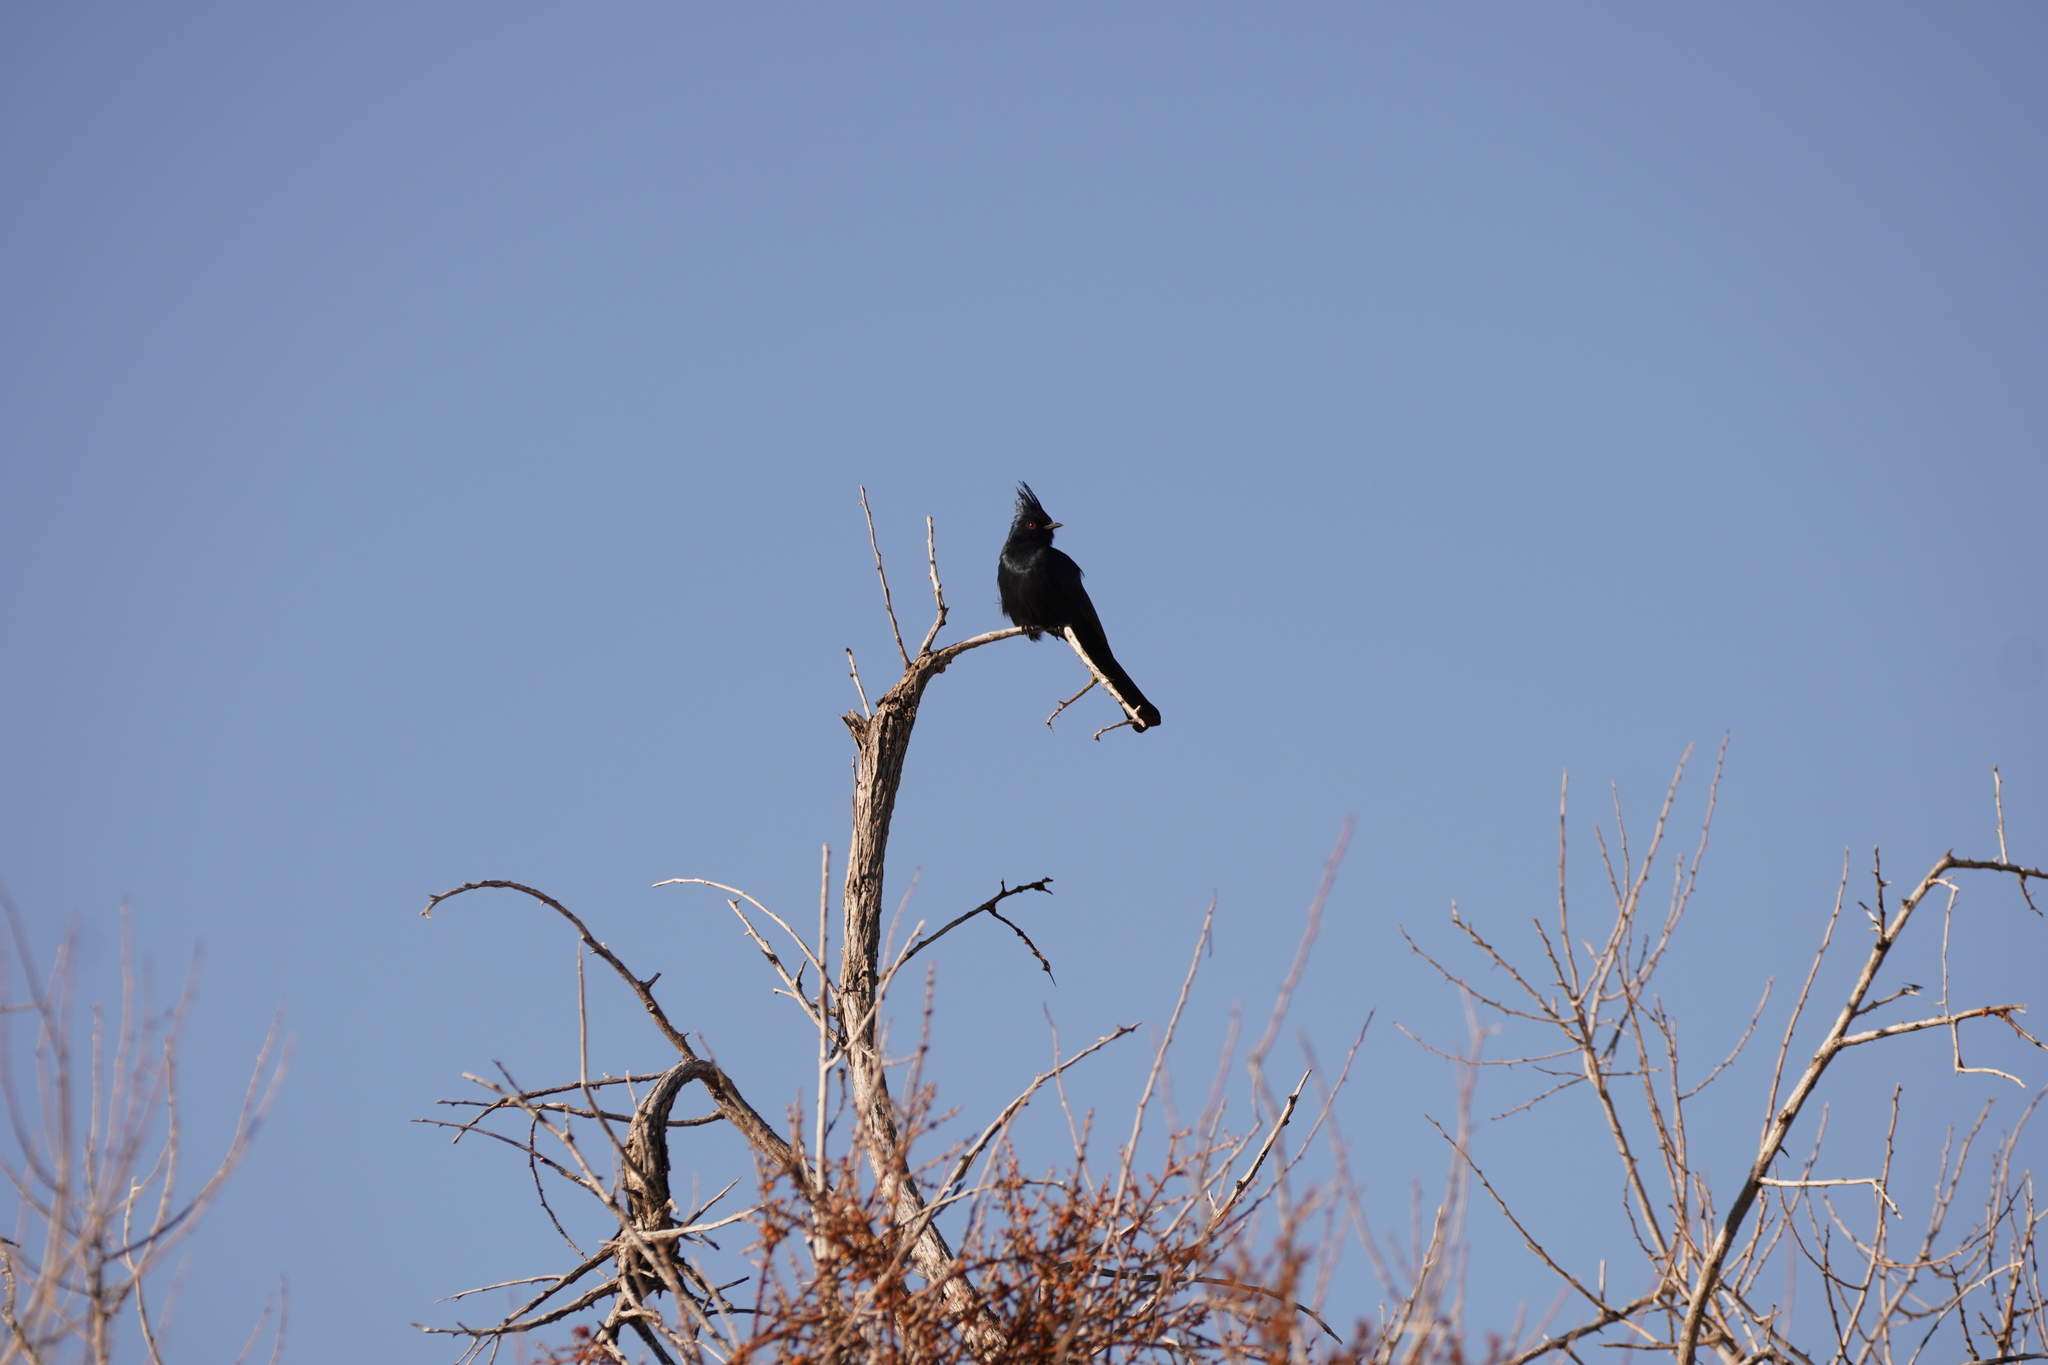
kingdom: Animalia
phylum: Chordata
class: Aves
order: Passeriformes
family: Ptilogonatidae
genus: Phainopepla
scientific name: Phainopepla nitens
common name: Phainopepla
